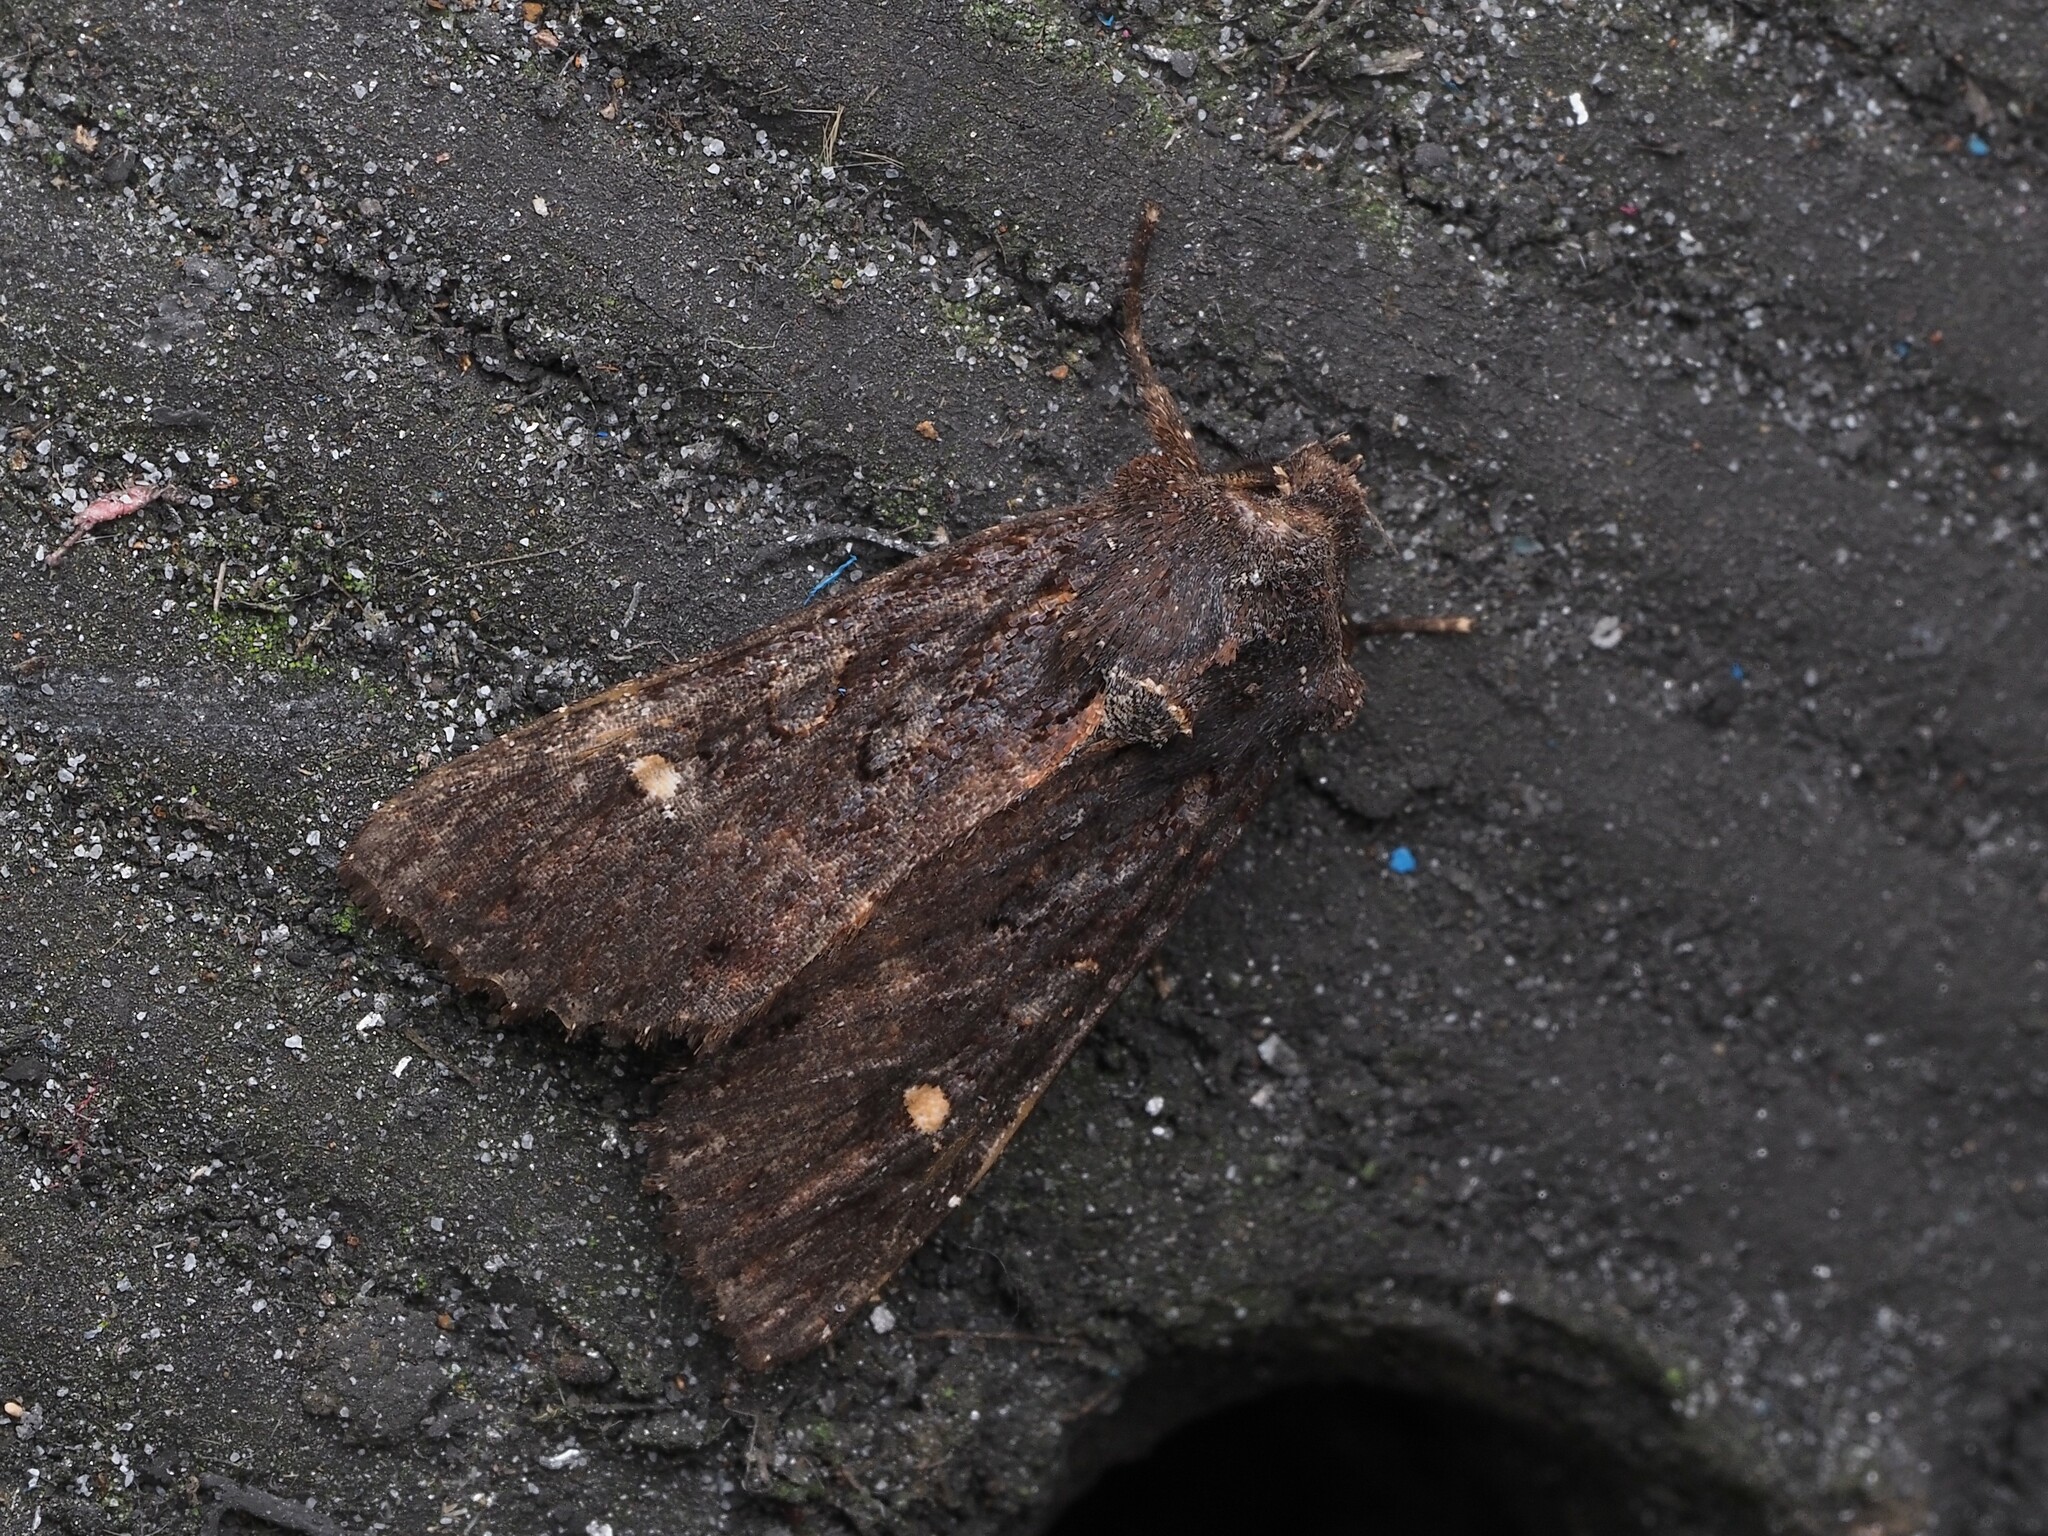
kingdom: Animalia
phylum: Arthropoda
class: Insecta
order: Lepidoptera
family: Noctuidae
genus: Meterana
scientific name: Meterana vitiosa
